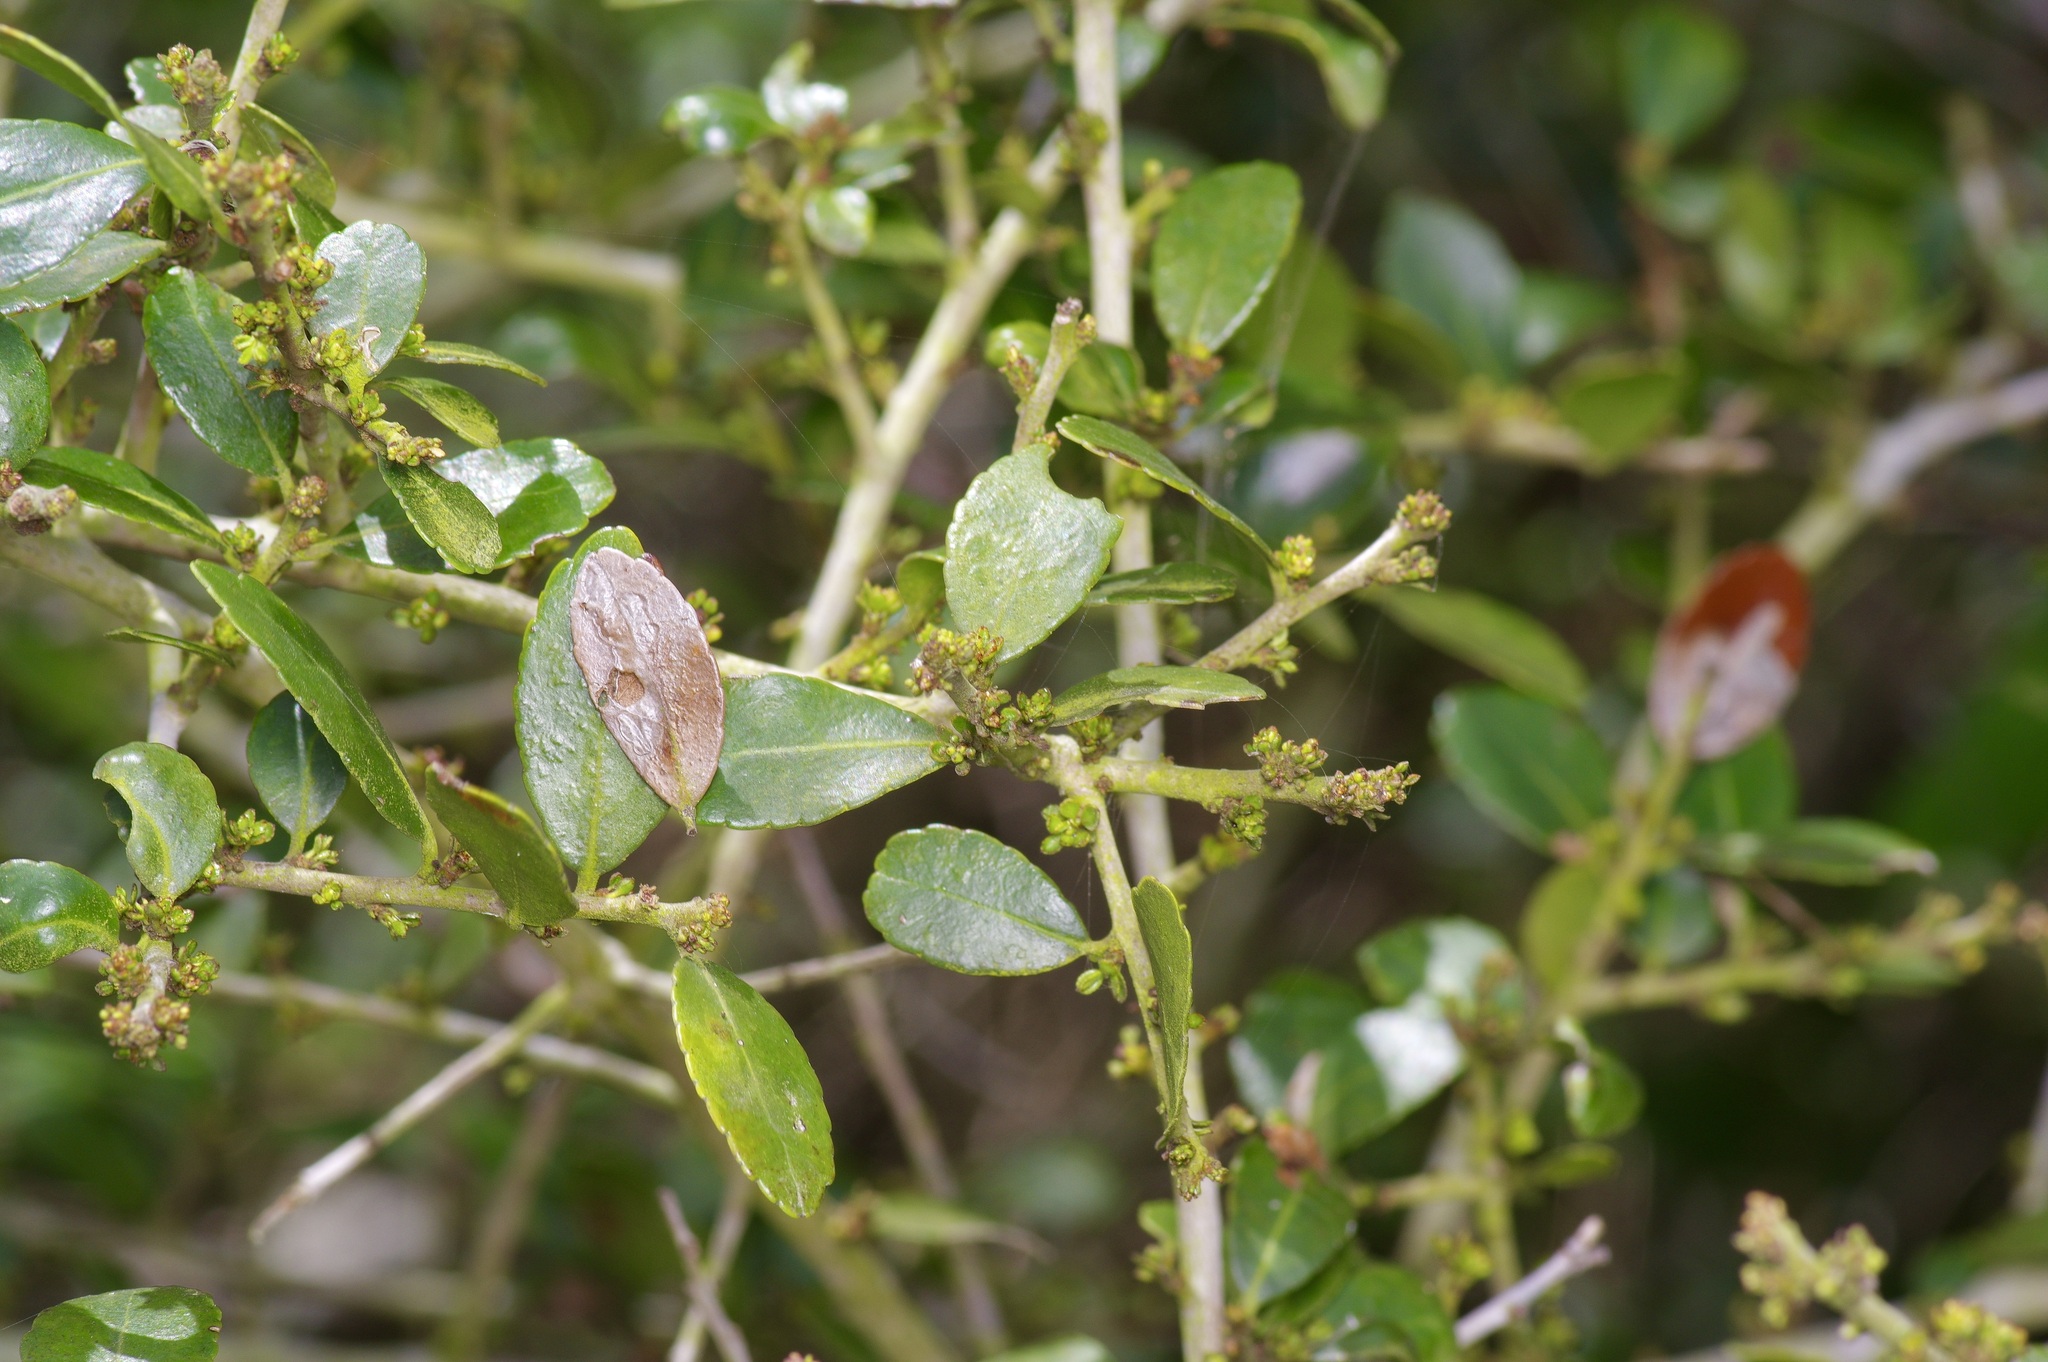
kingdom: Plantae
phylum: Tracheophyta
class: Magnoliopsida
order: Aquifoliales
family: Aquifoliaceae
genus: Ilex
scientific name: Ilex vomitoria
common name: Yaupon holly
